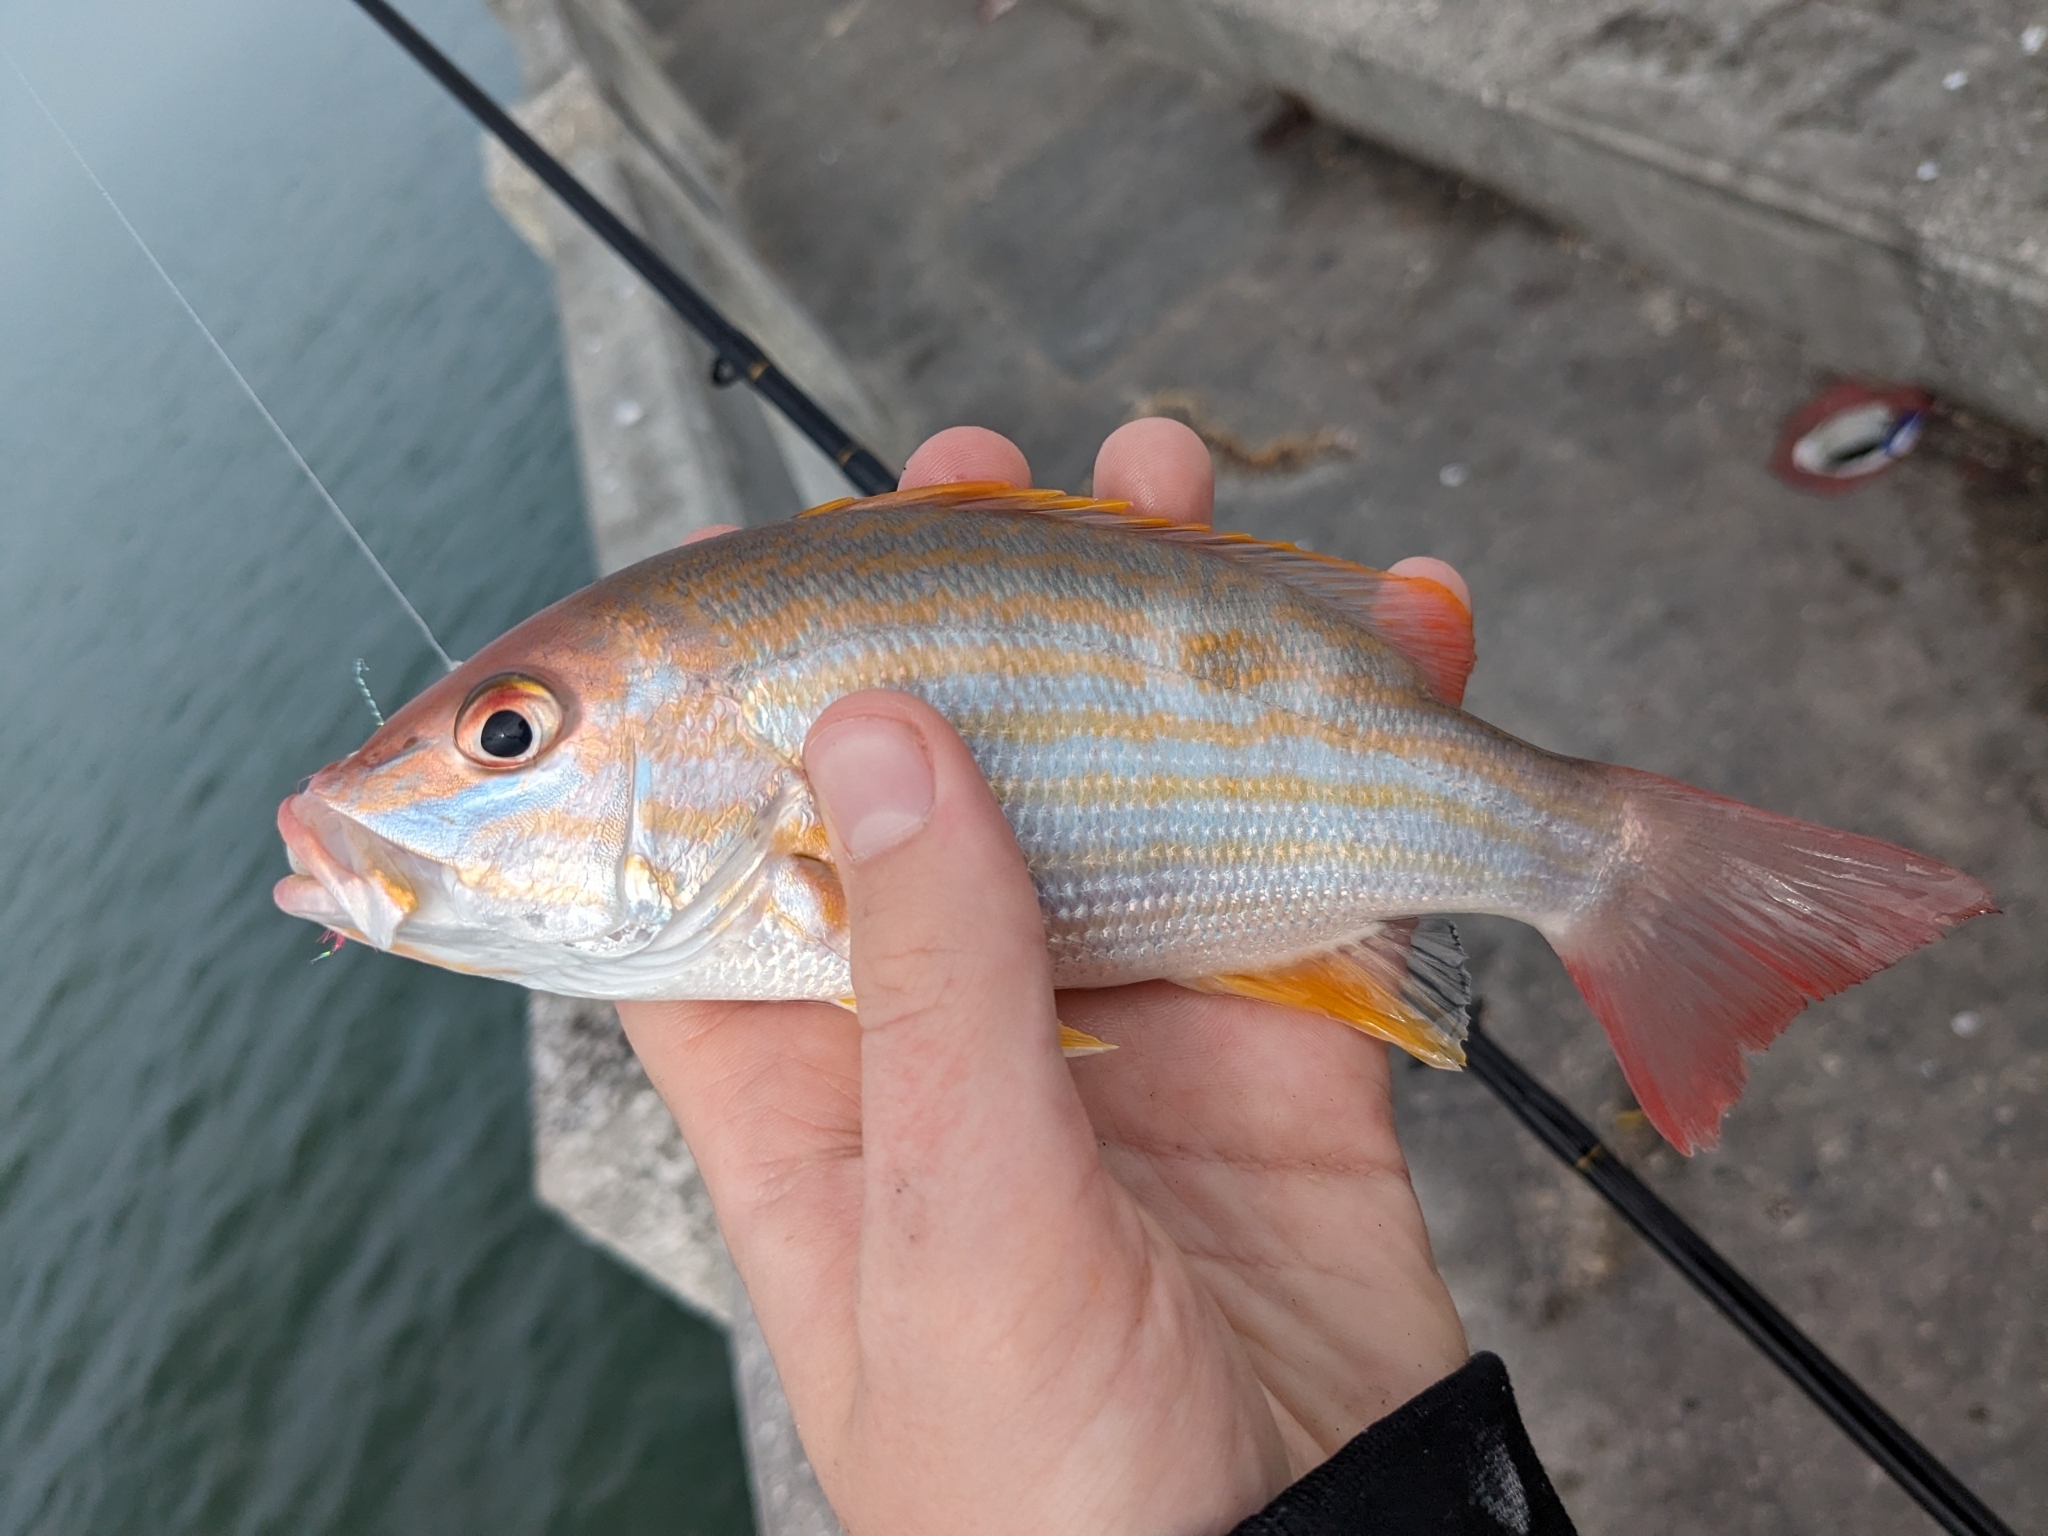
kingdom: Animalia
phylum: Chordata
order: Perciformes
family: Lutjanidae
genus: Lutjanus
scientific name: Lutjanus synagris
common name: Lane snapper
